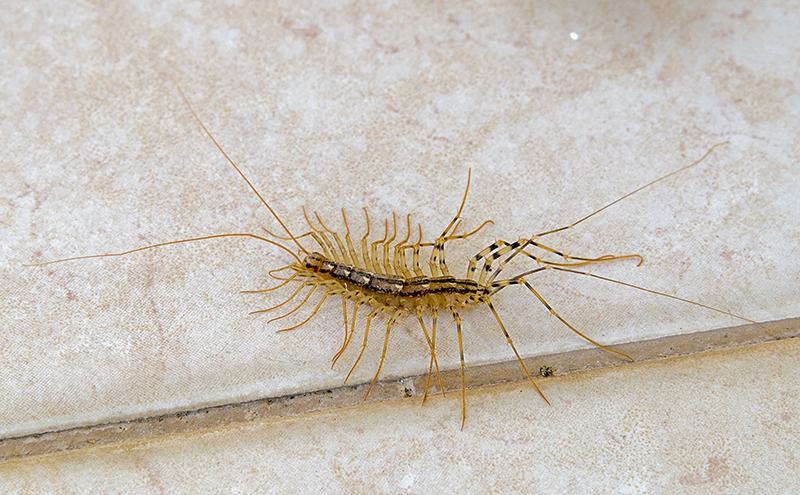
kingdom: Animalia
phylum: Arthropoda
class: Chilopoda
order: Scutigeromorpha
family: Scutigeridae
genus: Scutigera
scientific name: Scutigera coleoptrata
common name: House centipede
